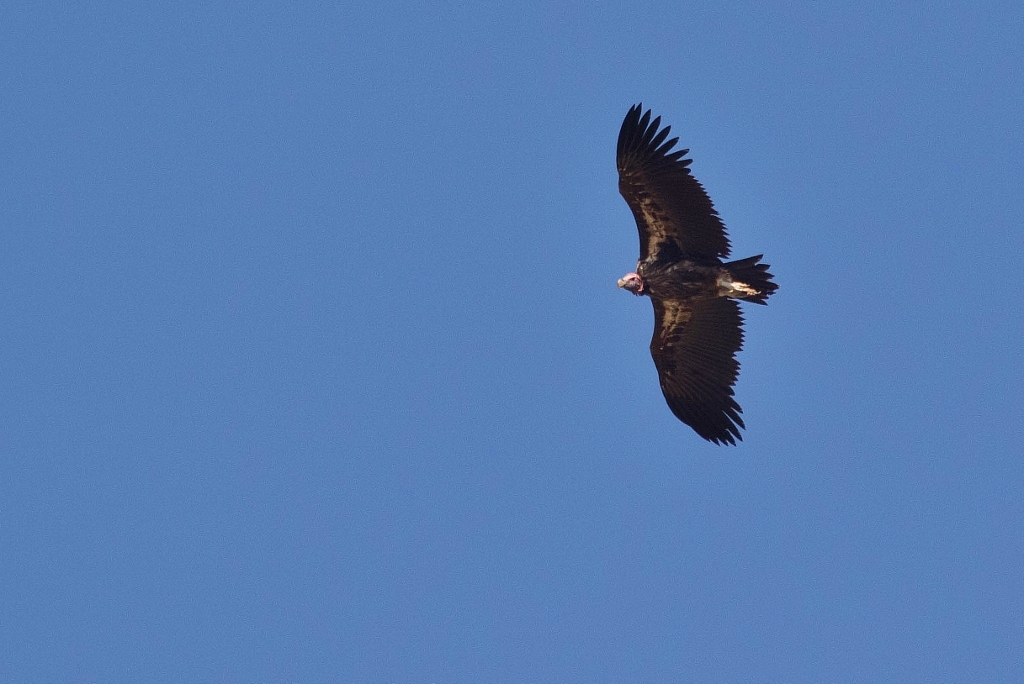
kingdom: Animalia
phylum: Chordata
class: Aves
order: Accipitriformes
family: Accipitridae
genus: Torgos
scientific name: Torgos tracheliotos
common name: Lappet-faced vulture
